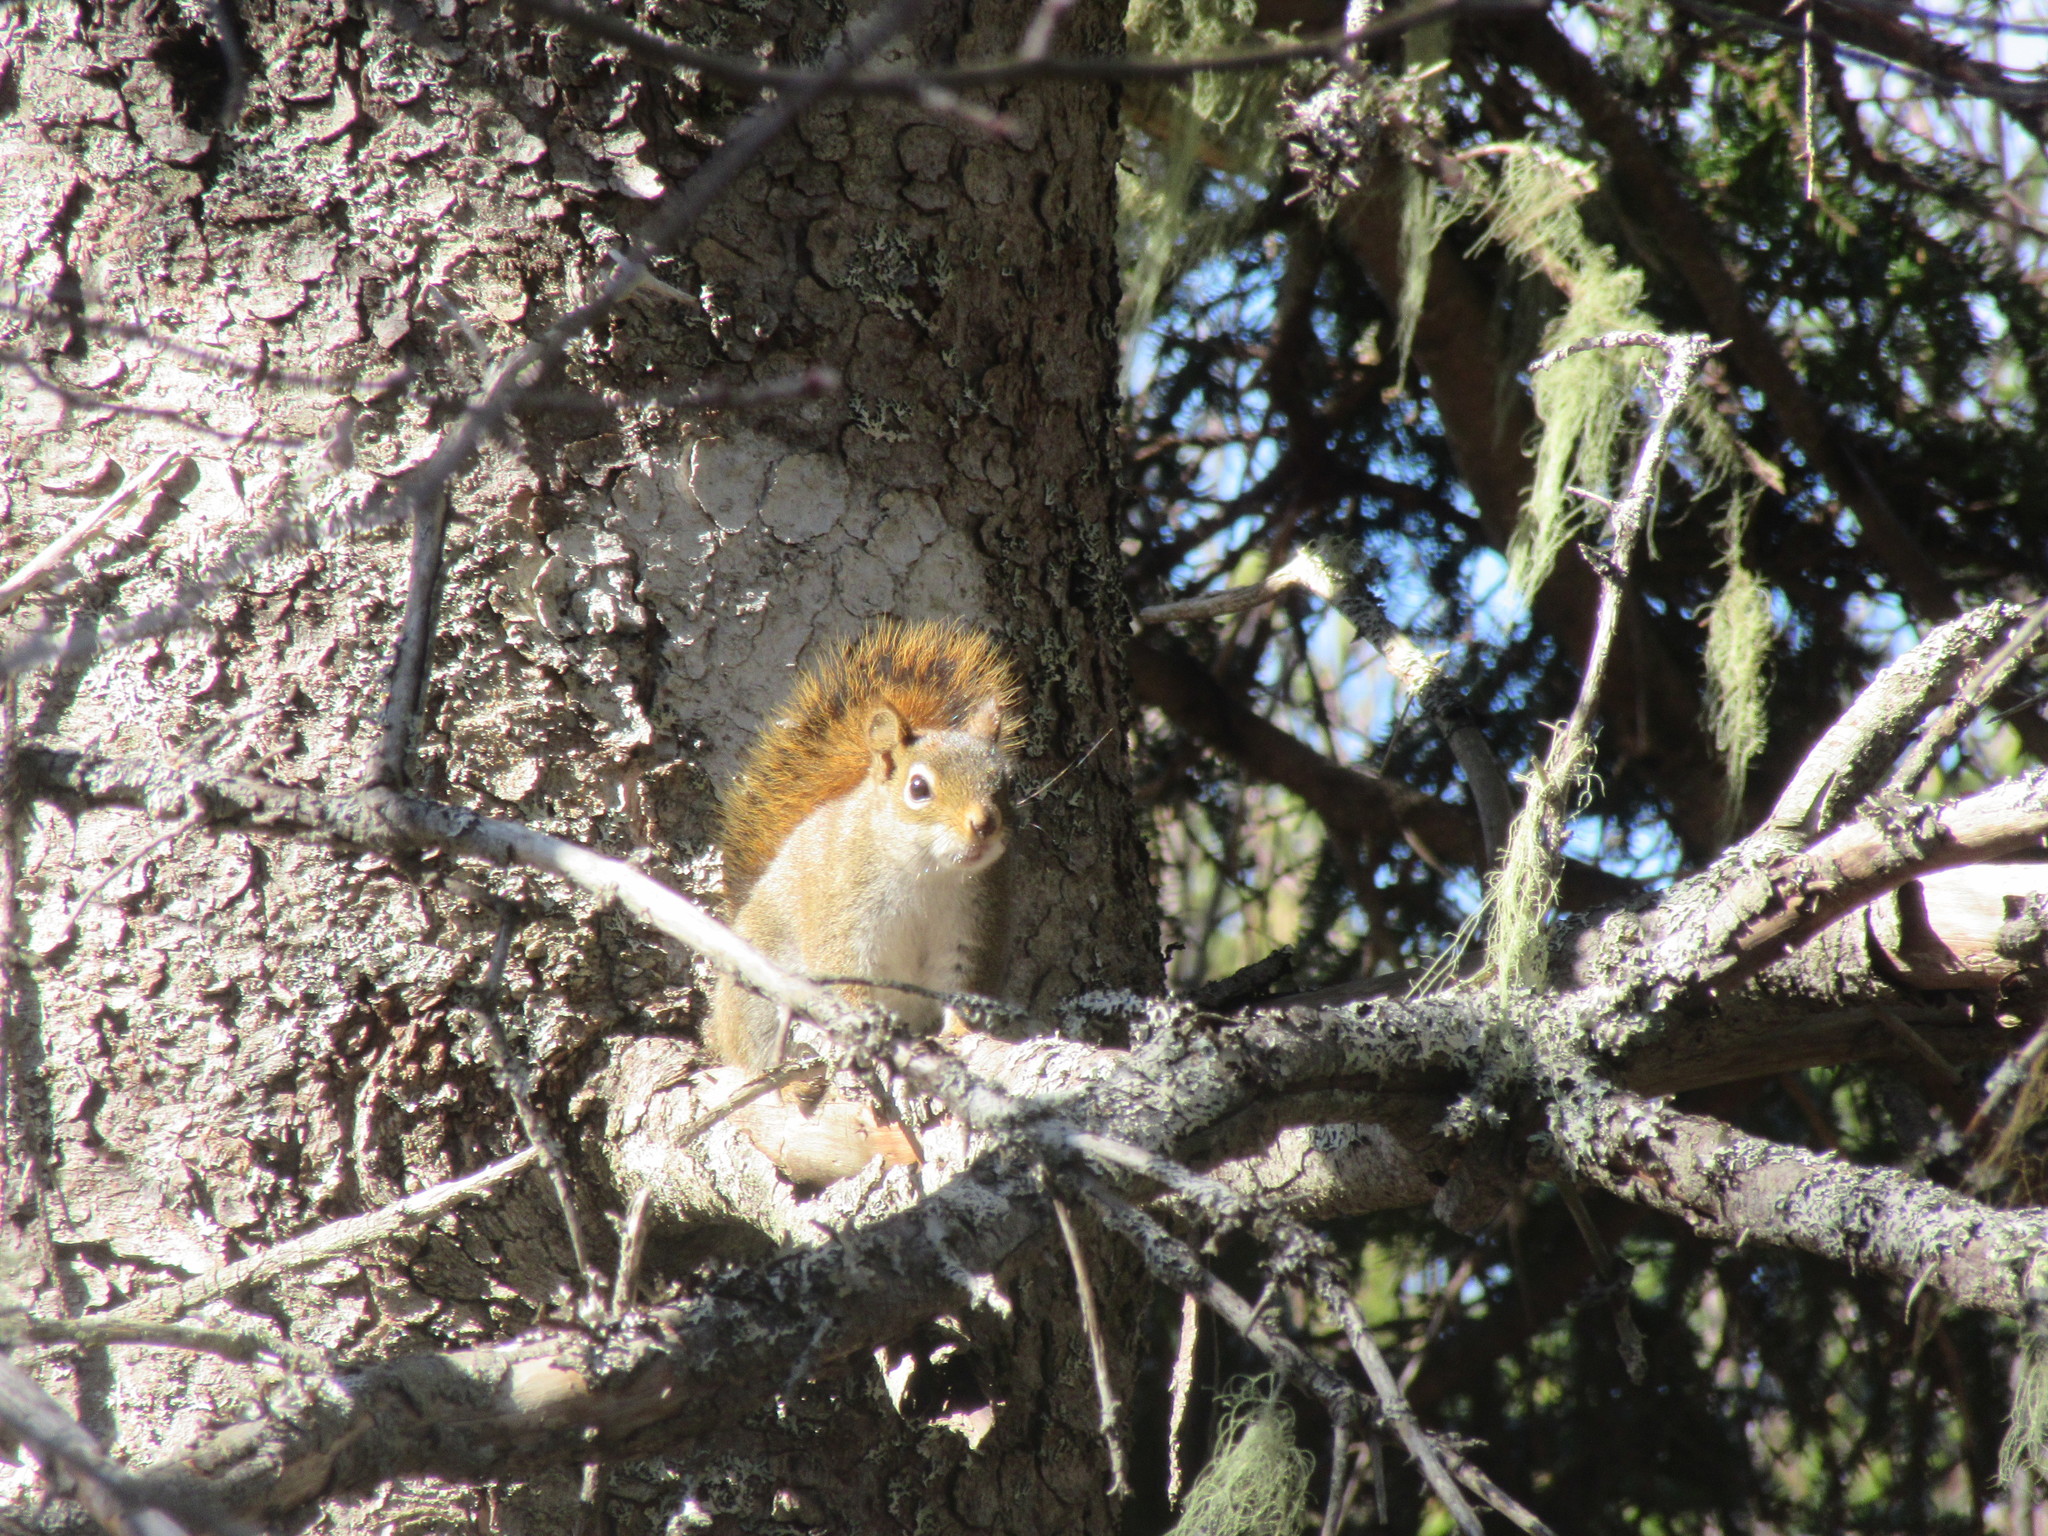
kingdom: Animalia
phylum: Chordata
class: Mammalia
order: Rodentia
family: Sciuridae
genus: Tamiasciurus
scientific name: Tamiasciurus hudsonicus
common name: Red squirrel
